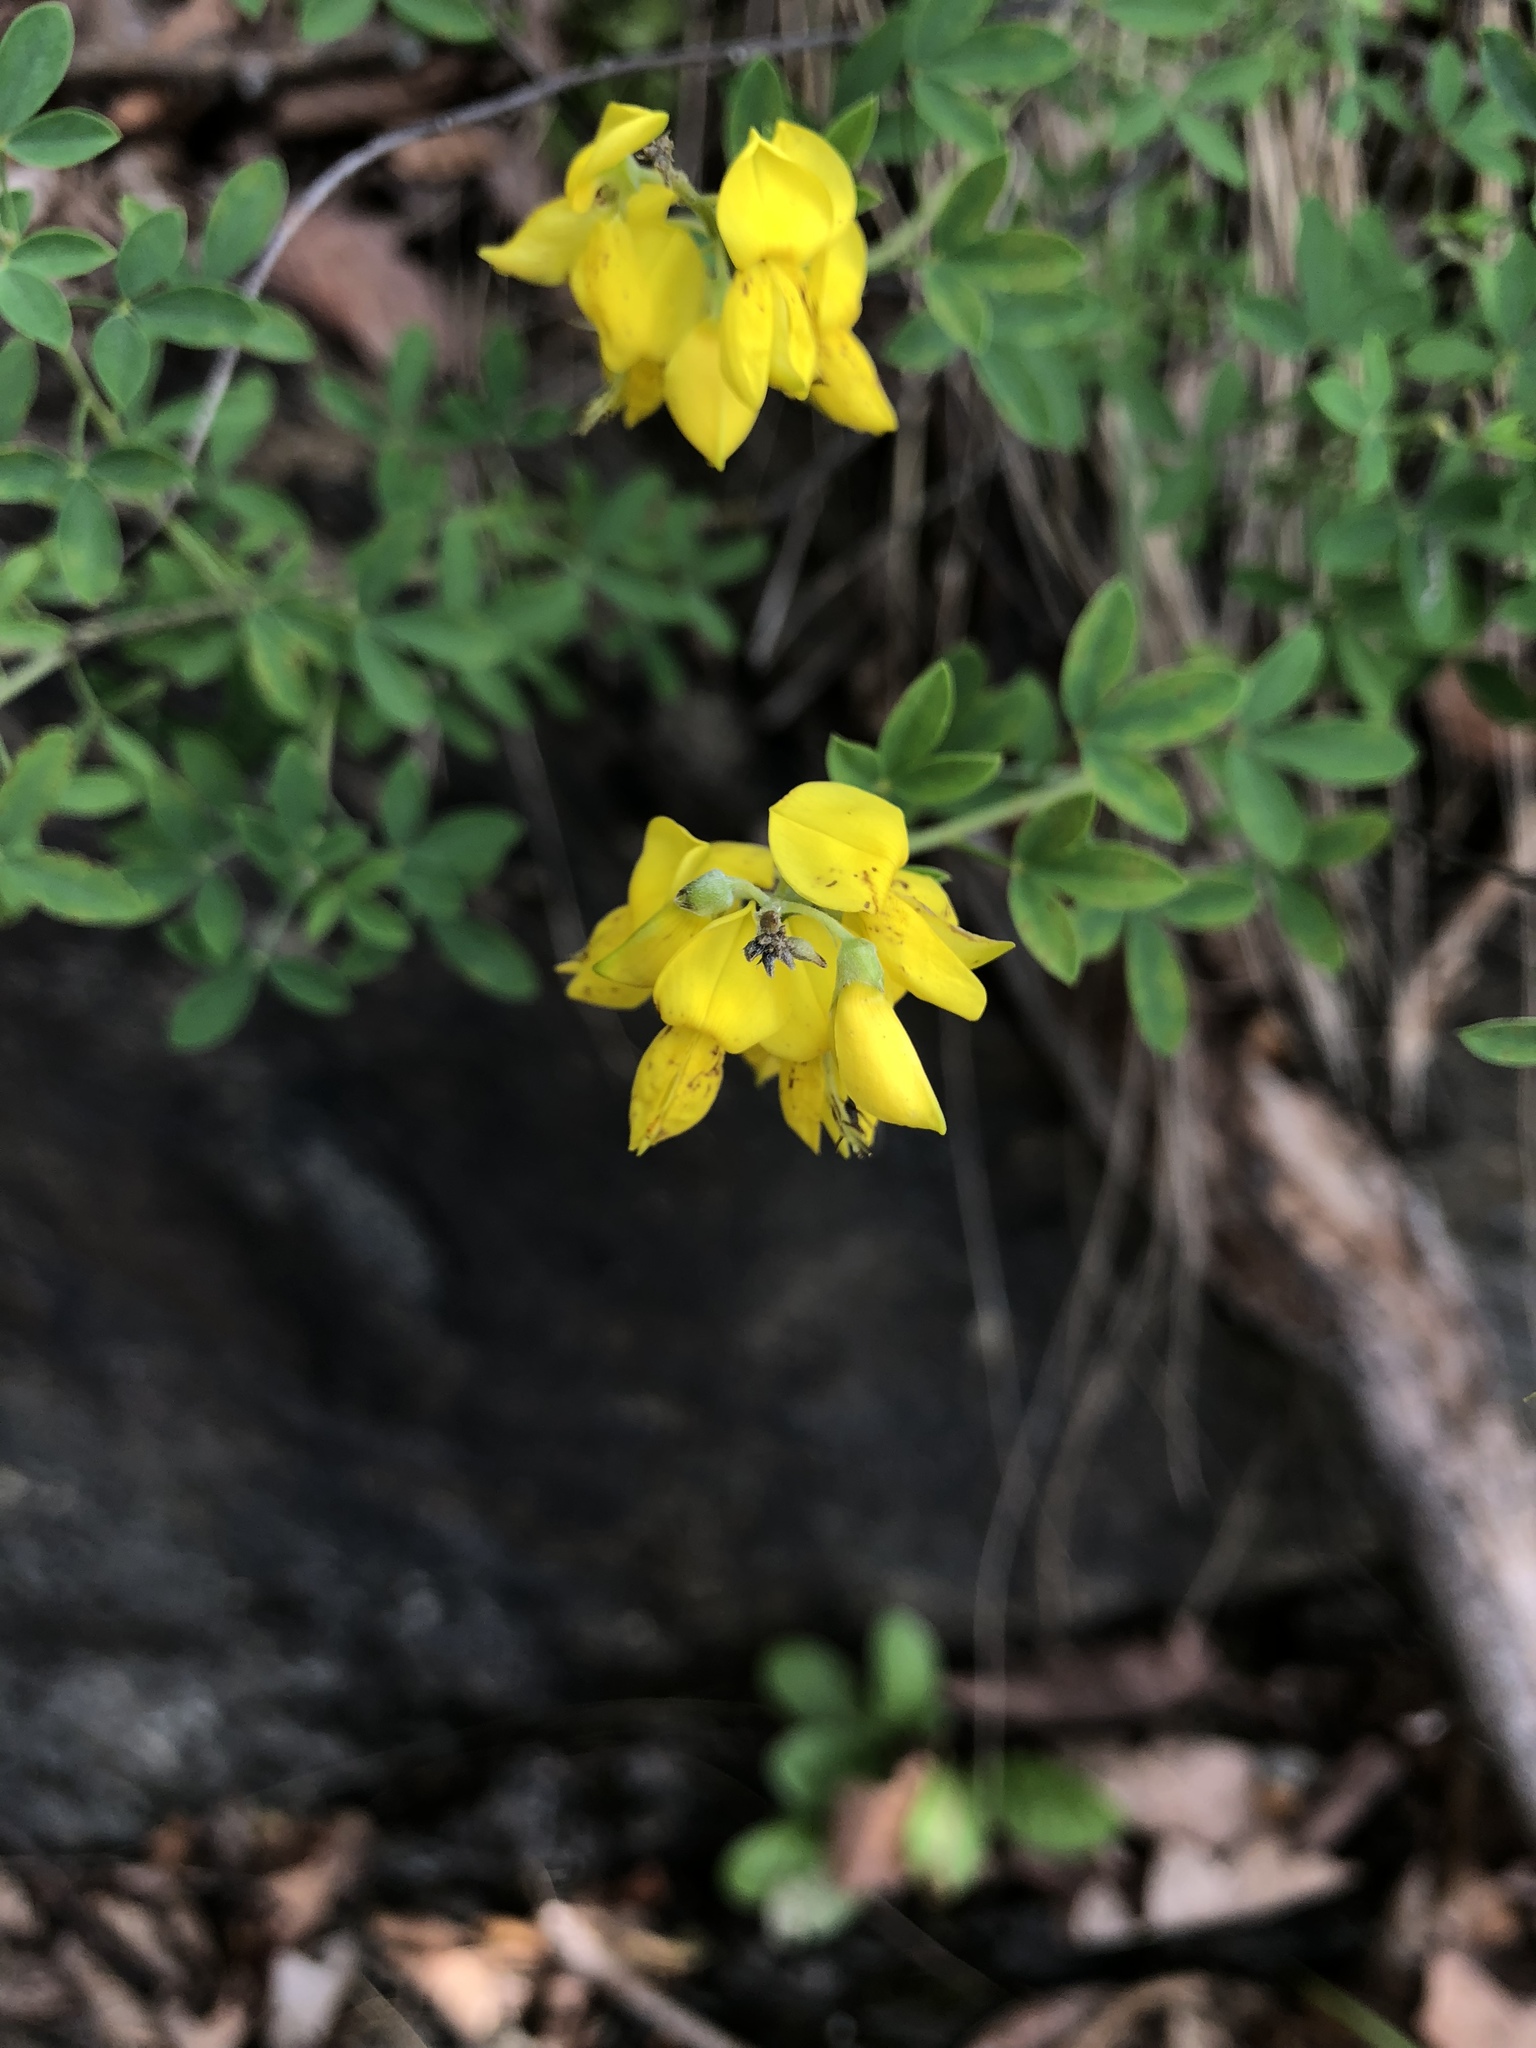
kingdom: Plantae
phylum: Tracheophyta
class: Magnoliopsida
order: Fabales
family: Fabaceae
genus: Cytisus
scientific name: Cytisus nigricans
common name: Black broom
